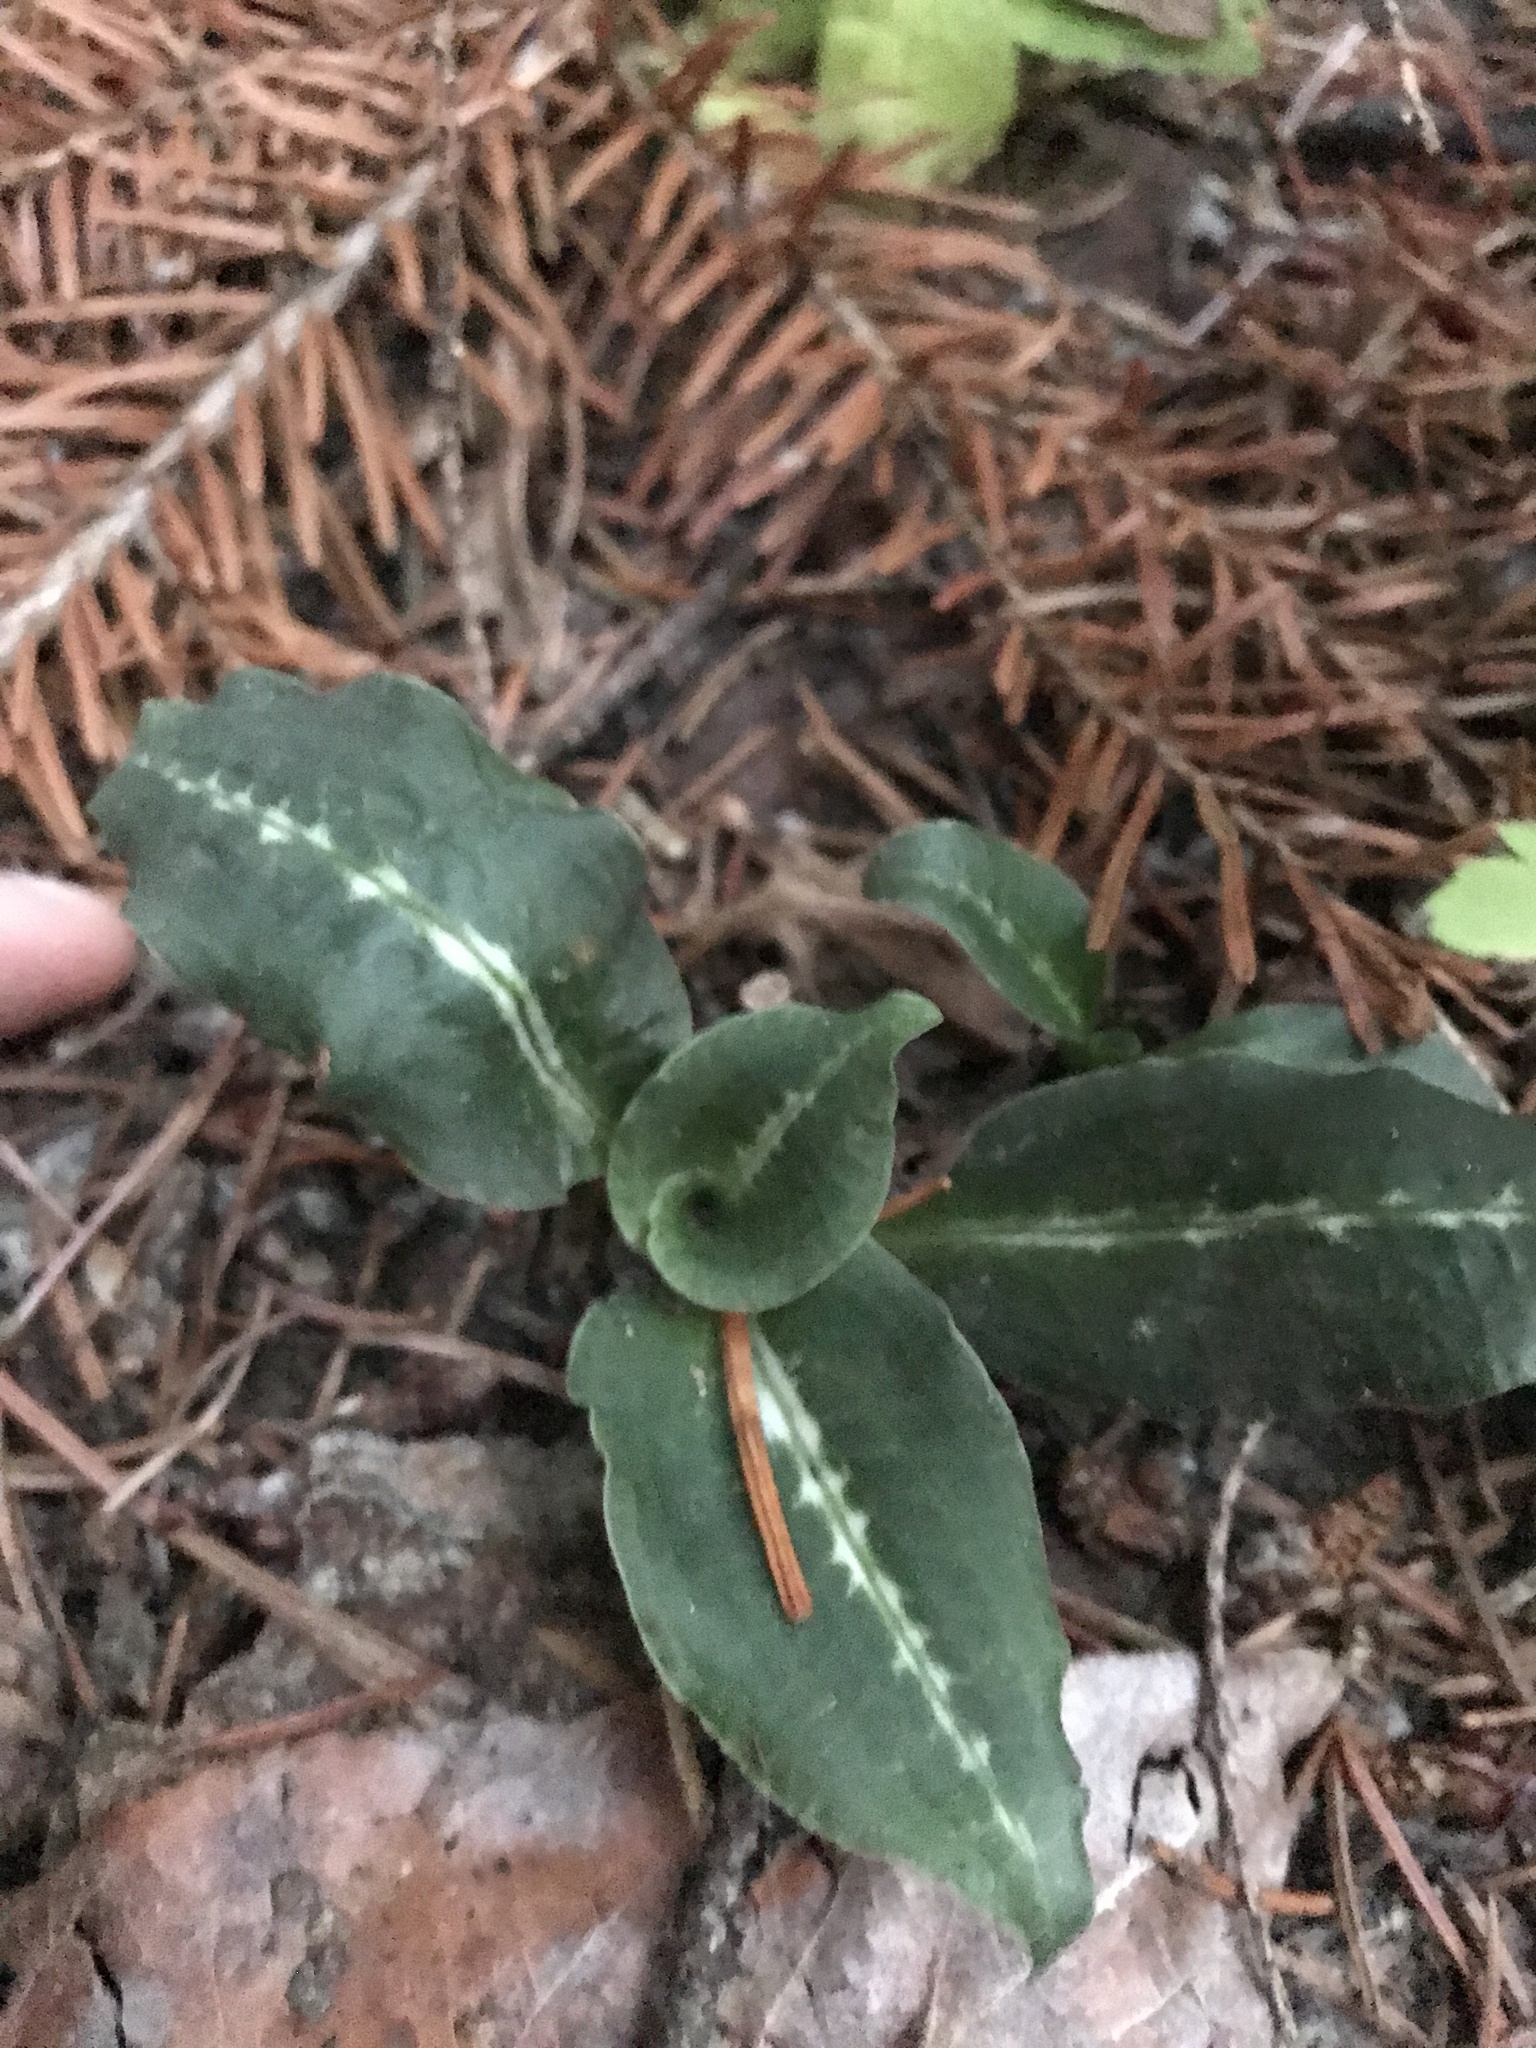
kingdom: Plantae
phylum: Tracheophyta
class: Liliopsida
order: Asparagales
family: Orchidaceae
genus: Goodyera
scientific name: Goodyera oblongifolia
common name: Giant rattlesnake-plantain
